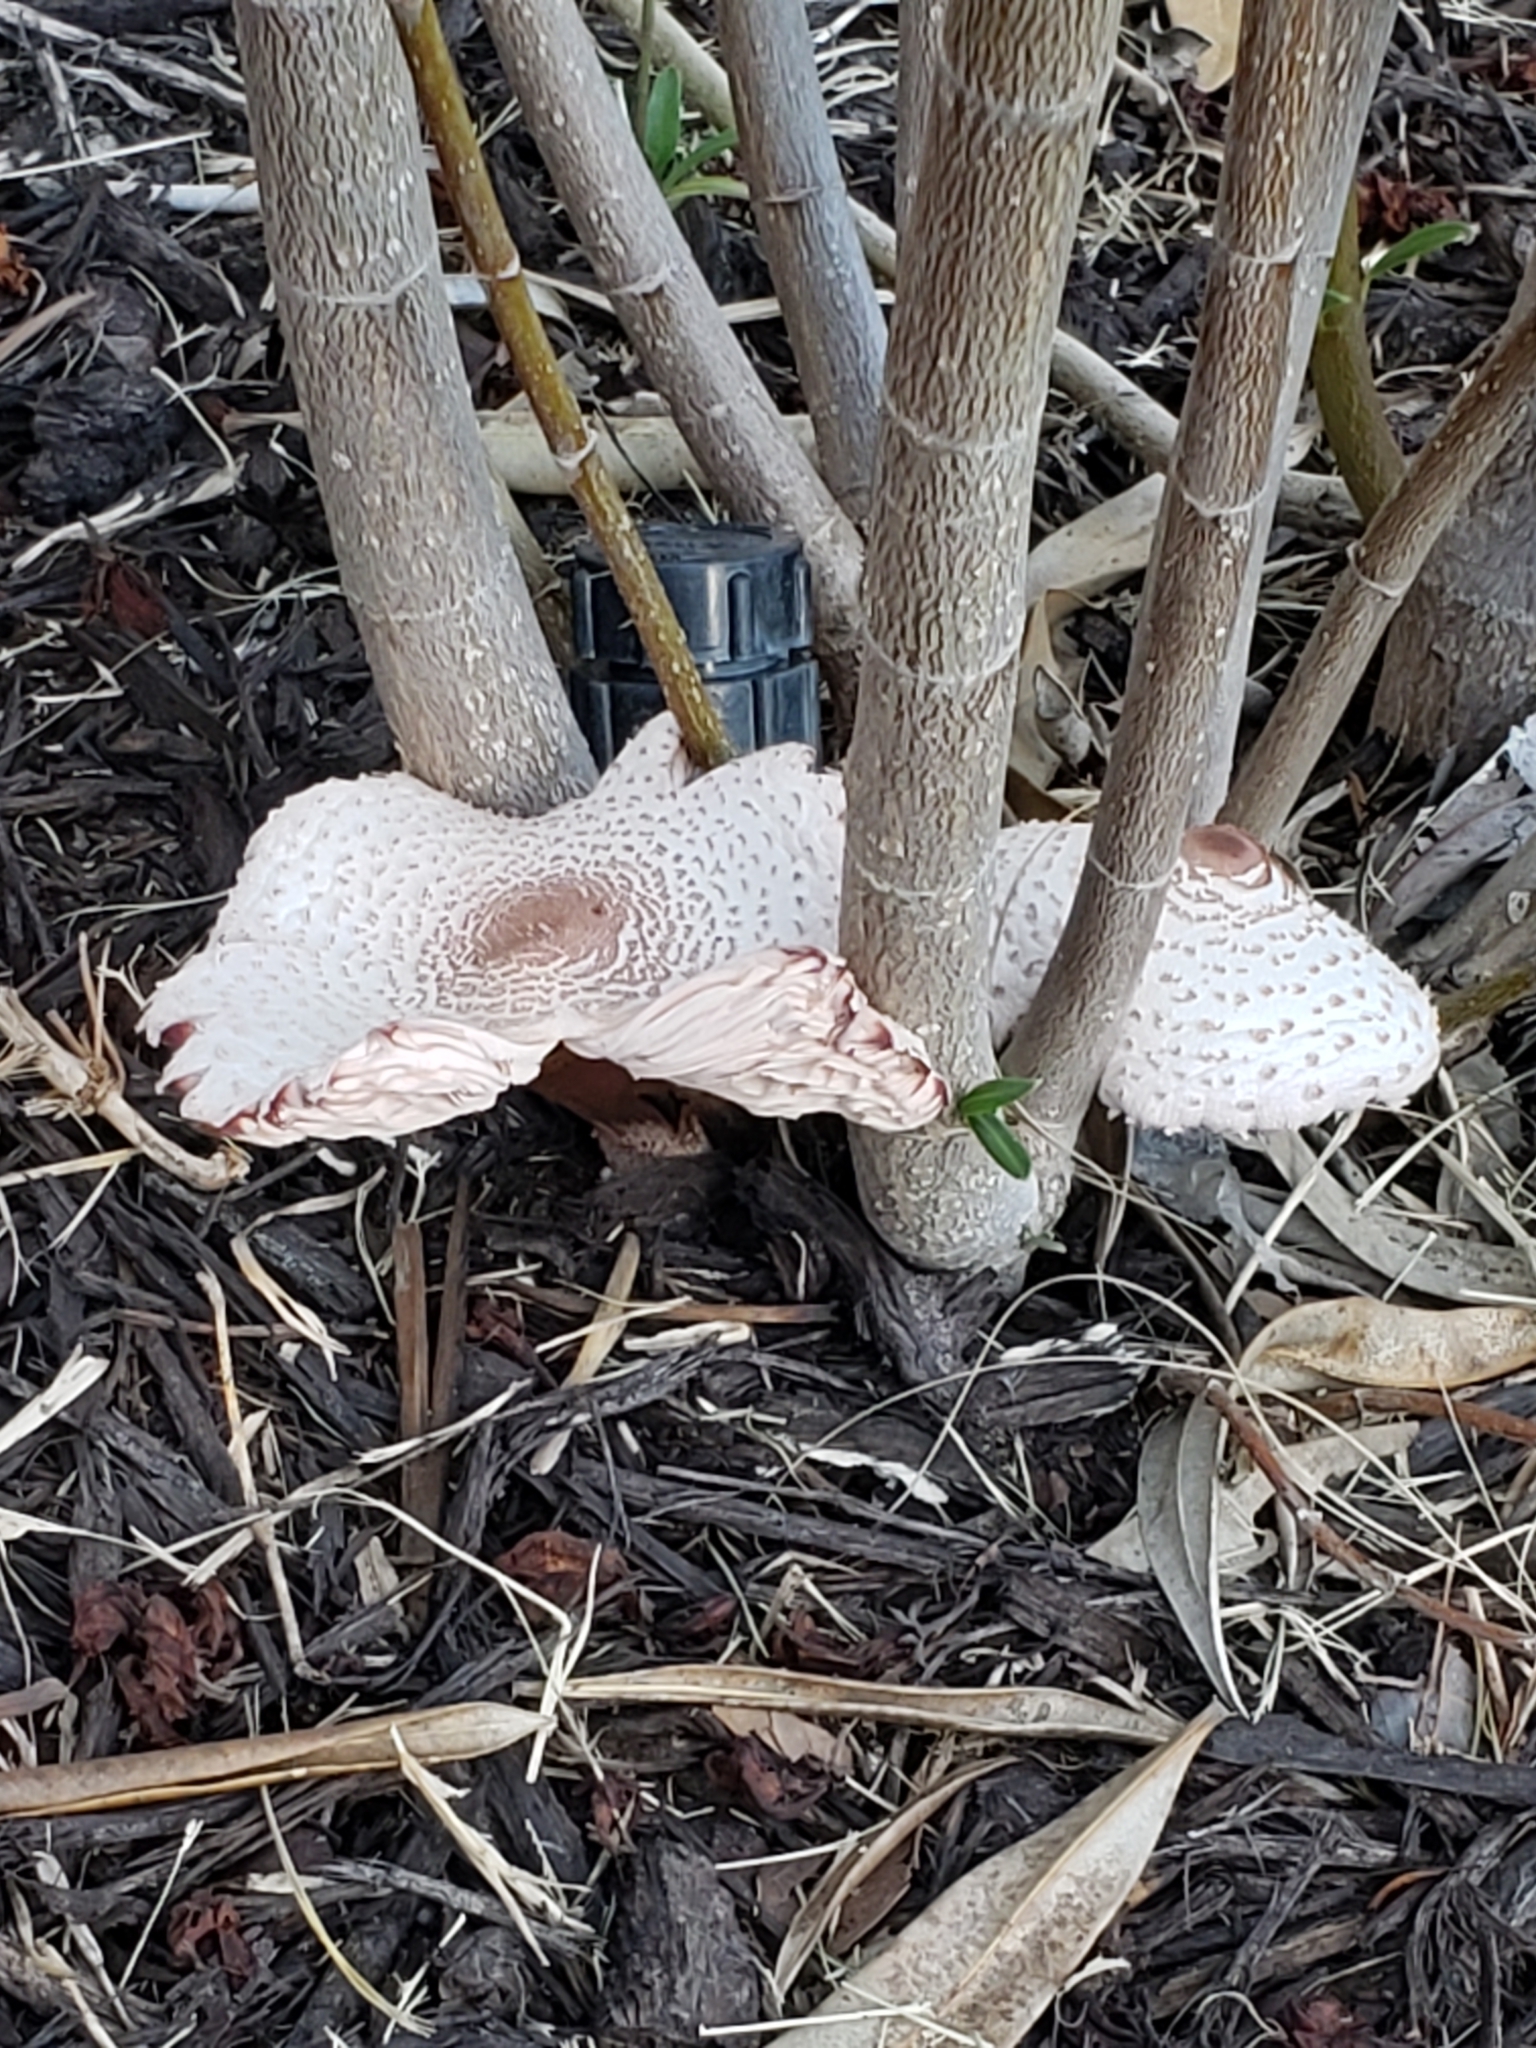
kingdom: Fungi
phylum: Basidiomycota
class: Agaricomycetes
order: Agaricales
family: Agaricaceae
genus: Leucoagaricus
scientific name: Leucoagaricus americanus
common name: Reddening lepiota
